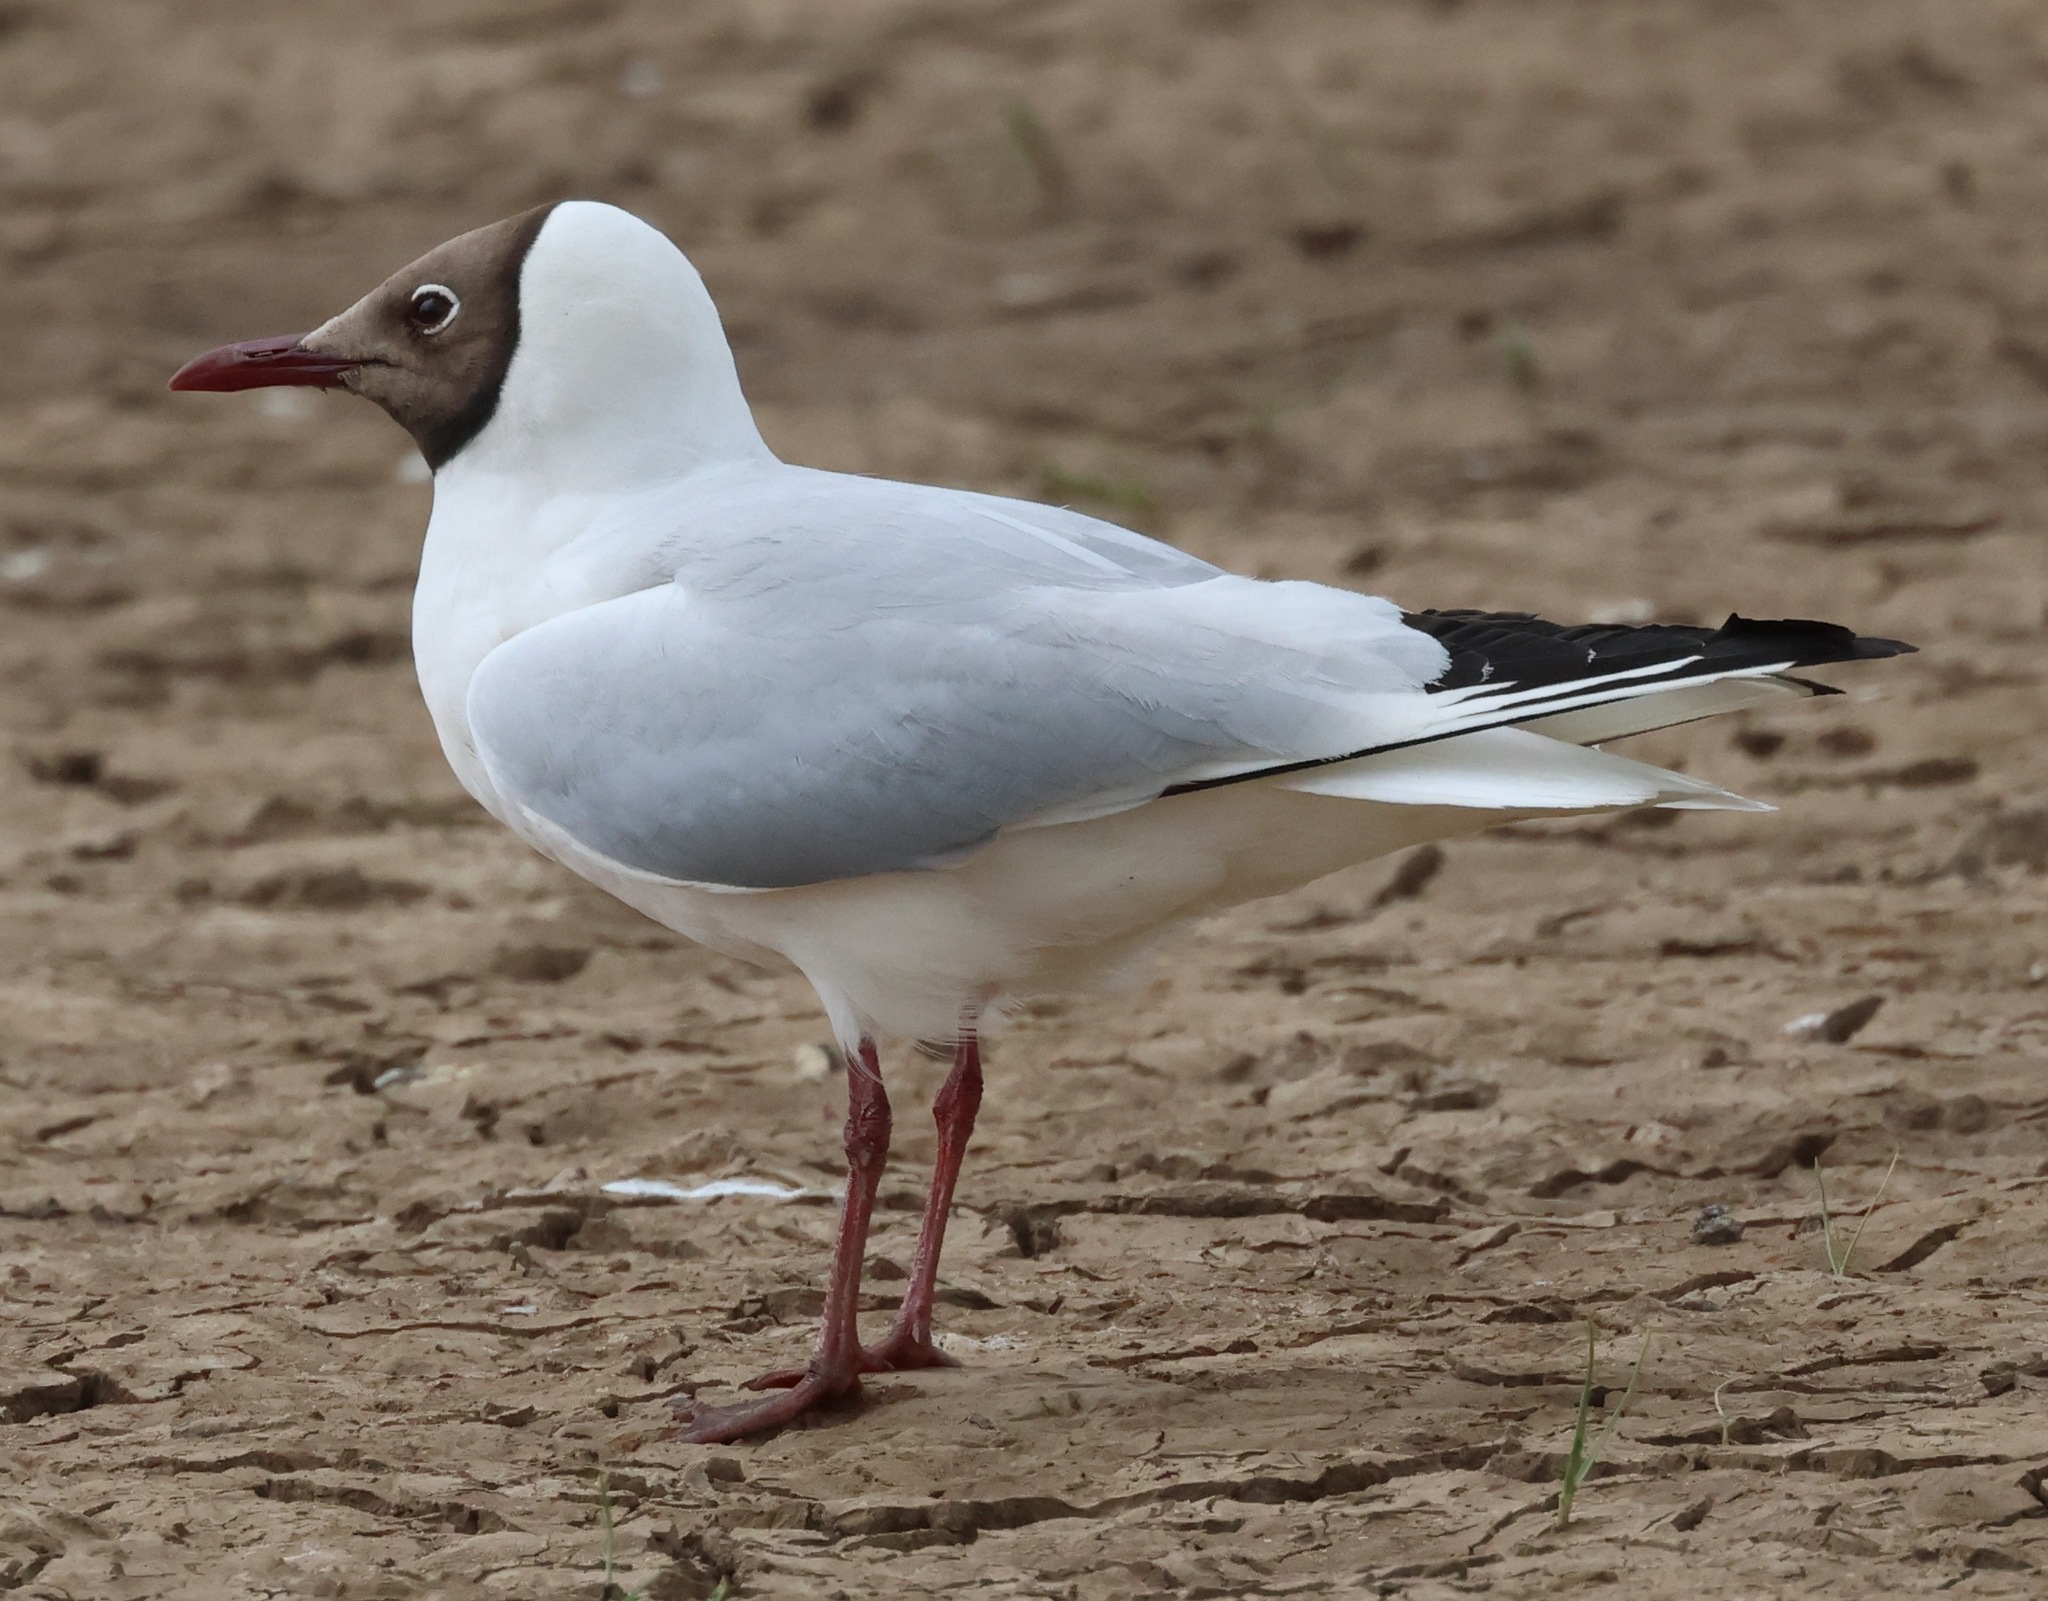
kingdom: Animalia
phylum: Chordata
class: Aves
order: Charadriiformes
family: Laridae
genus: Chroicocephalus
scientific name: Chroicocephalus ridibundus
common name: Black-headed gull
